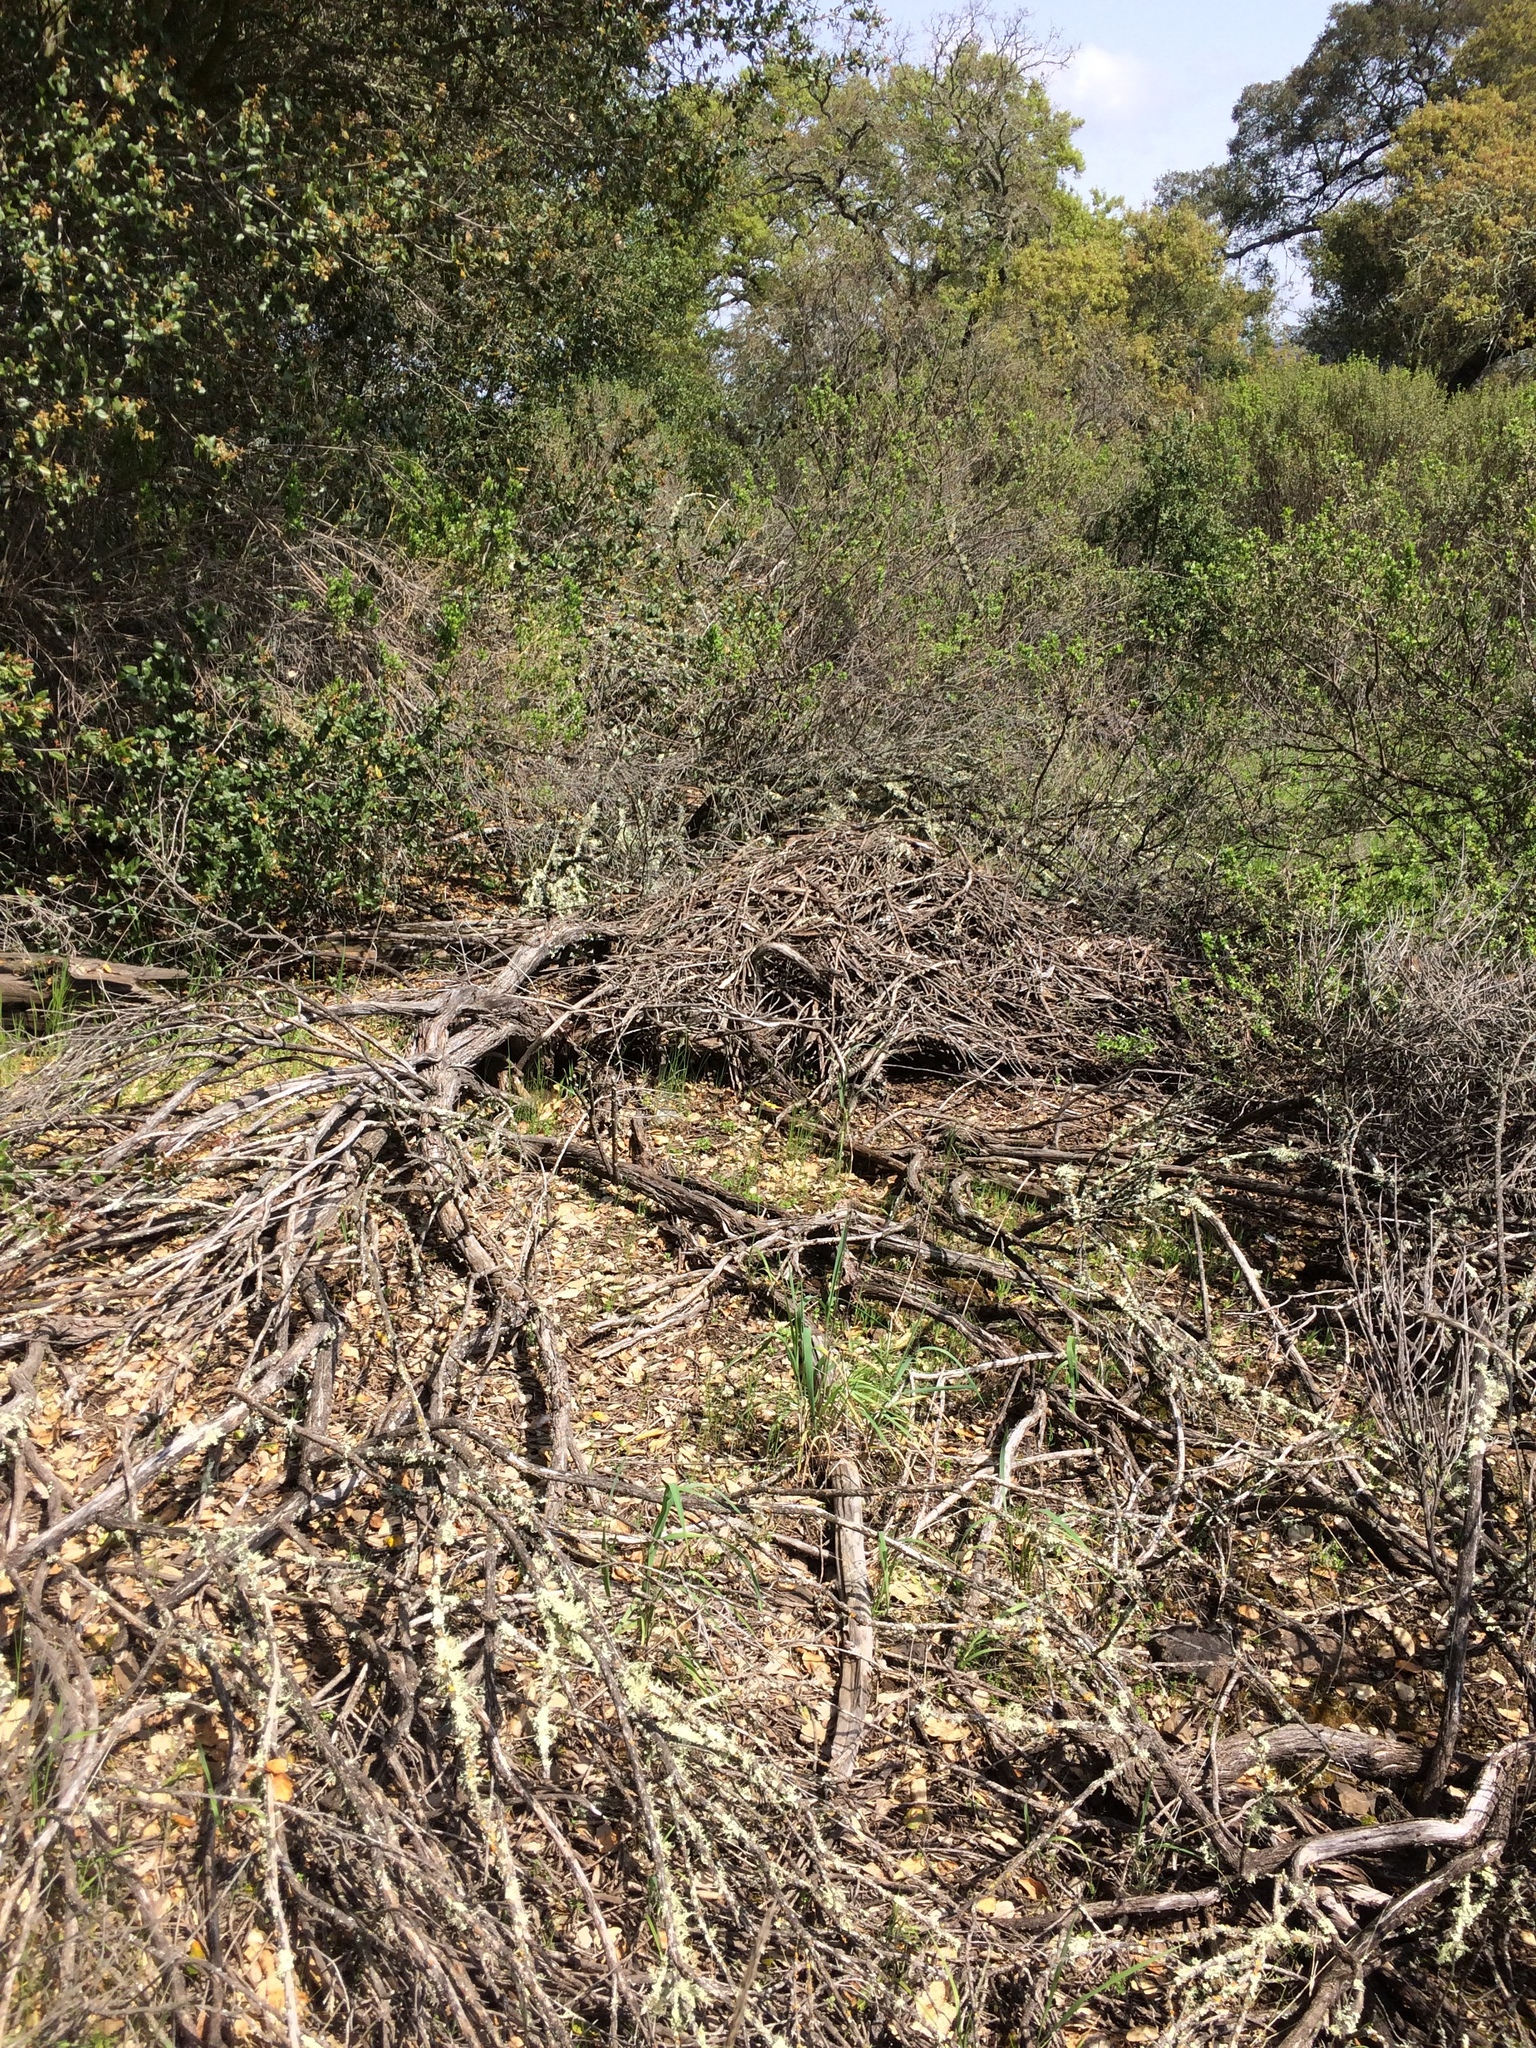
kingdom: Animalia
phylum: Chordata
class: Mammalia
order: Rodentia
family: Cricetidae
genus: Neotoma
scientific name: Neotoma fuscipes
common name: Dusky-footed woodrat
